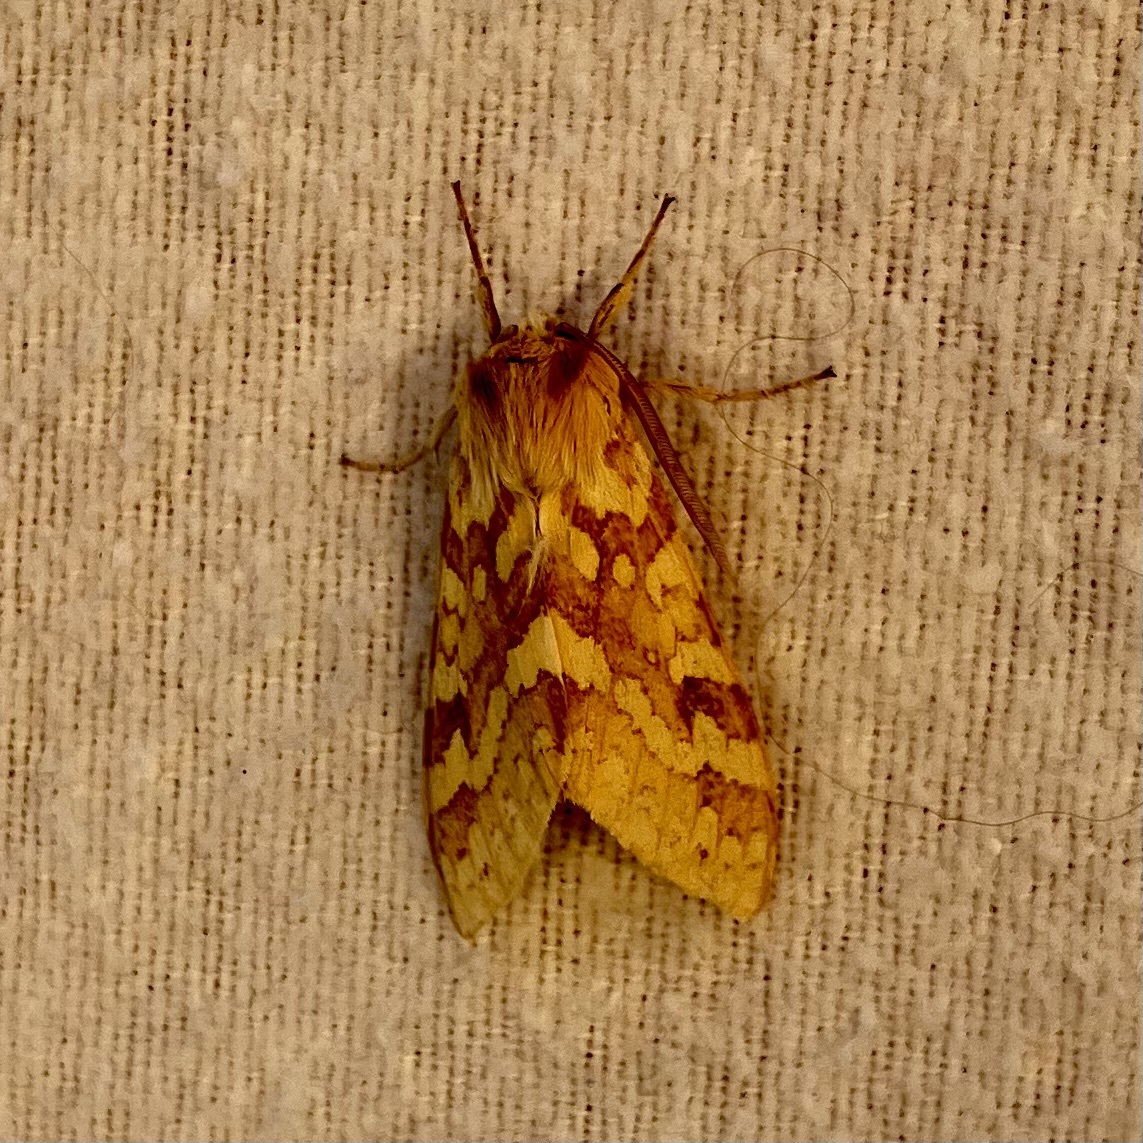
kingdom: Animalia
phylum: Arthropoda
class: Insecta
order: Lepidoptera
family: Erebidae
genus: Lophocampa
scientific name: Lophocampa maculata
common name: Spotted tussock moth
